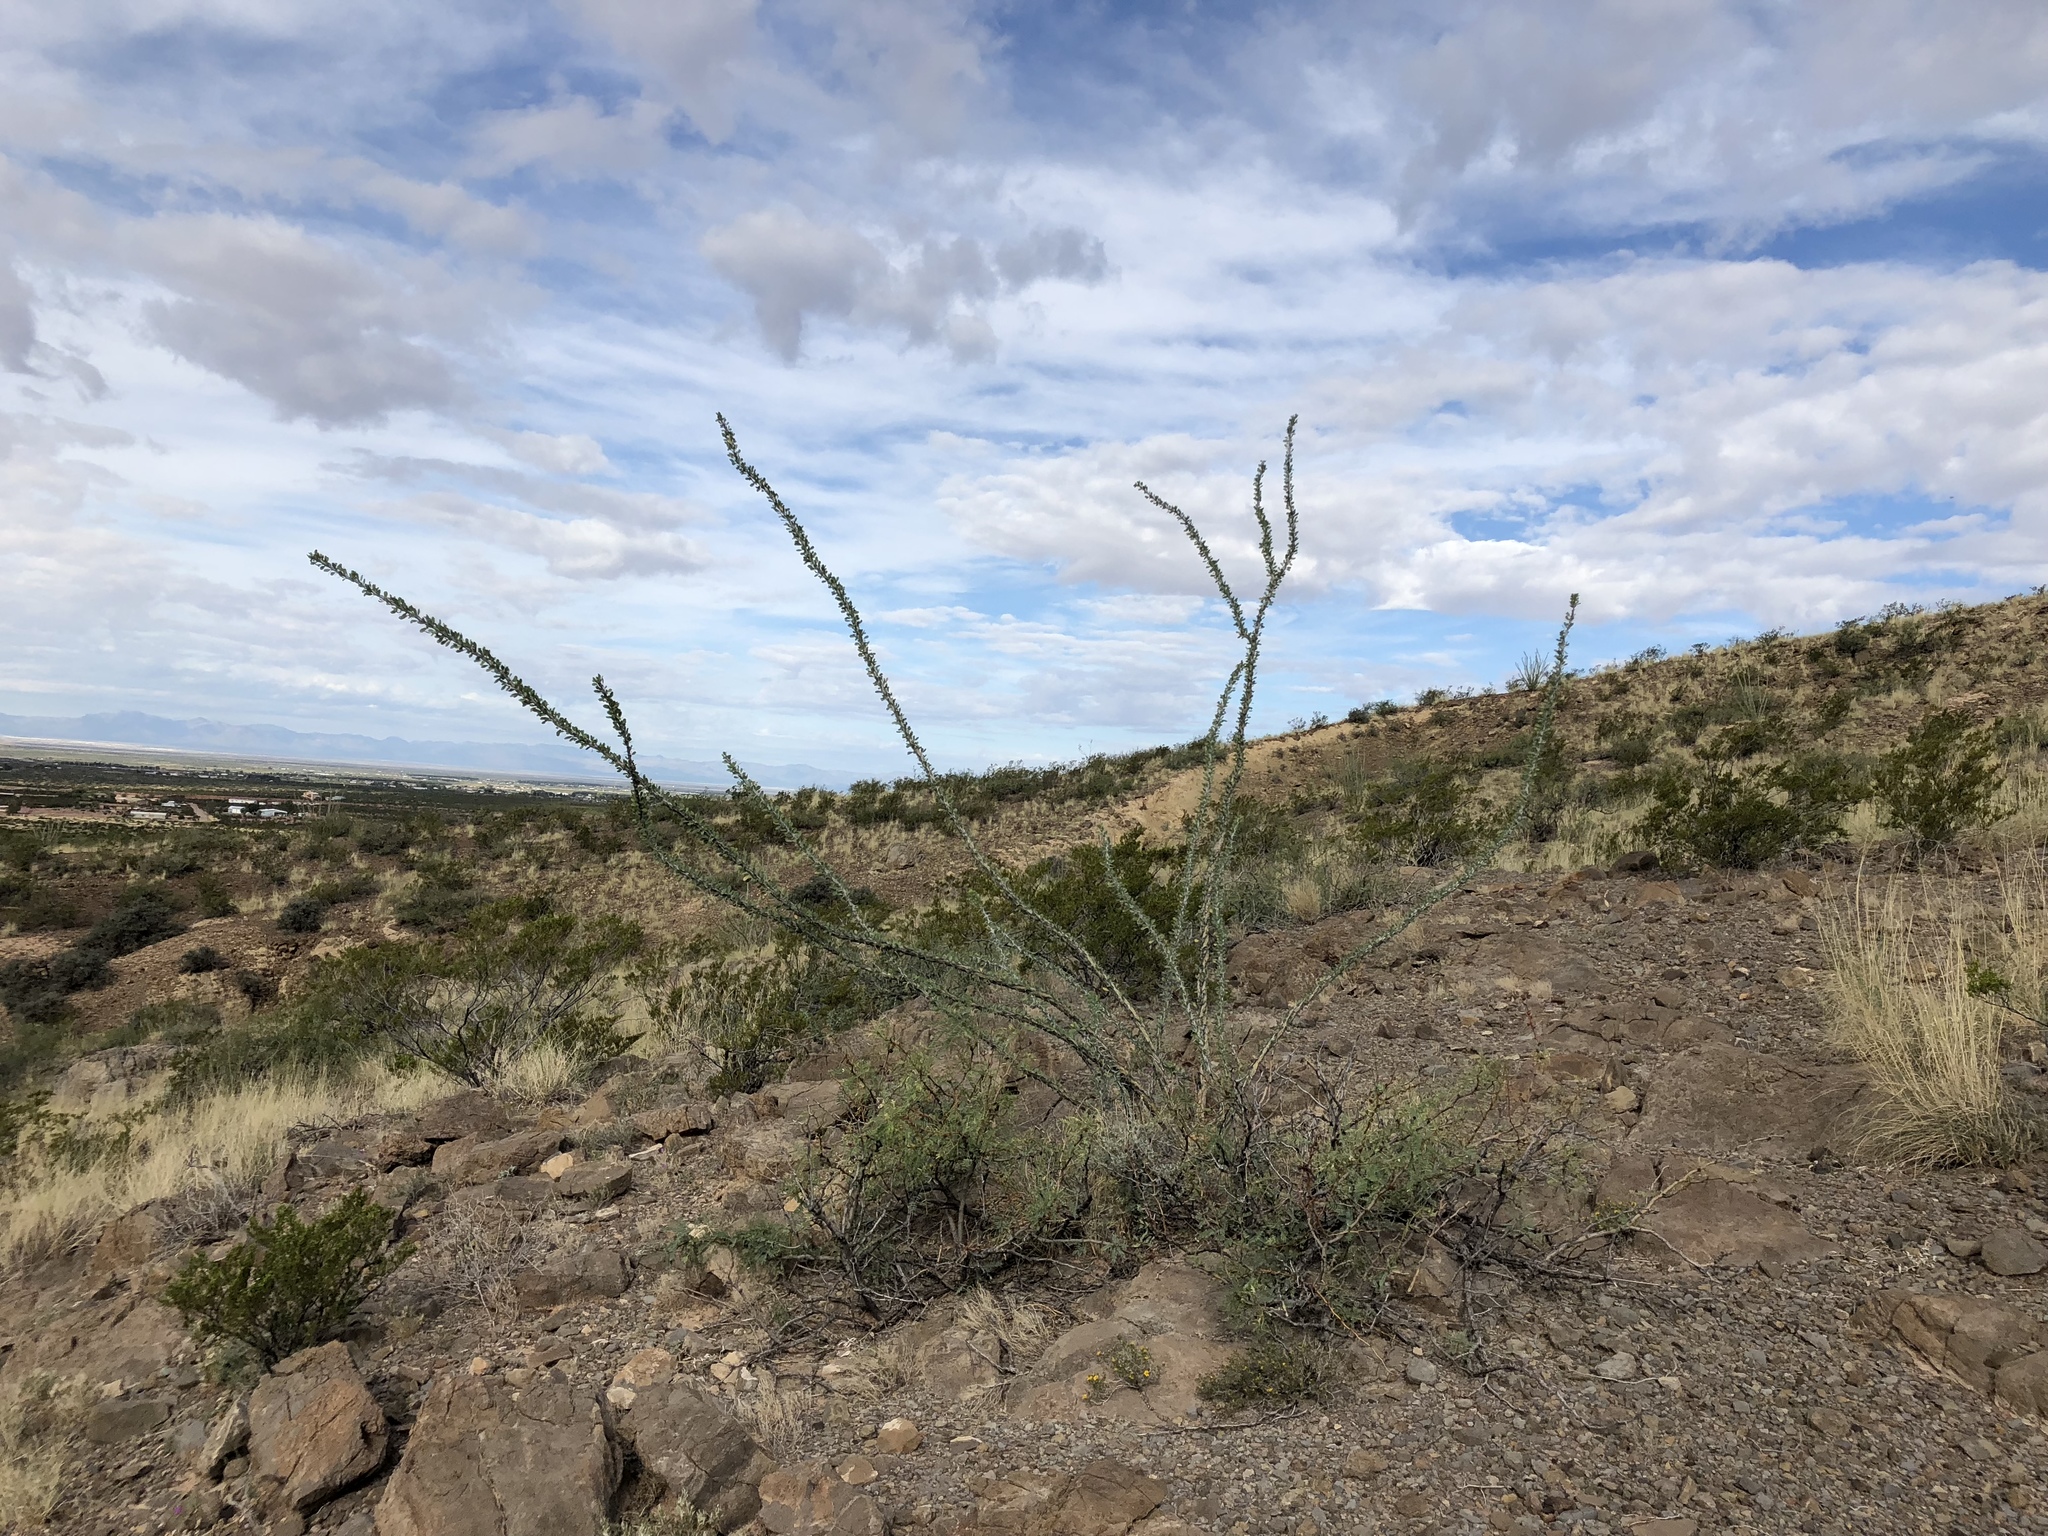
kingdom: Plantae
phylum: Tracheophyta
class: Magnoliopsida
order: Ericales
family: Fouquieriaceae
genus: Fouquieria
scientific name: Fouquieria splendens
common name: Vine-cactus
